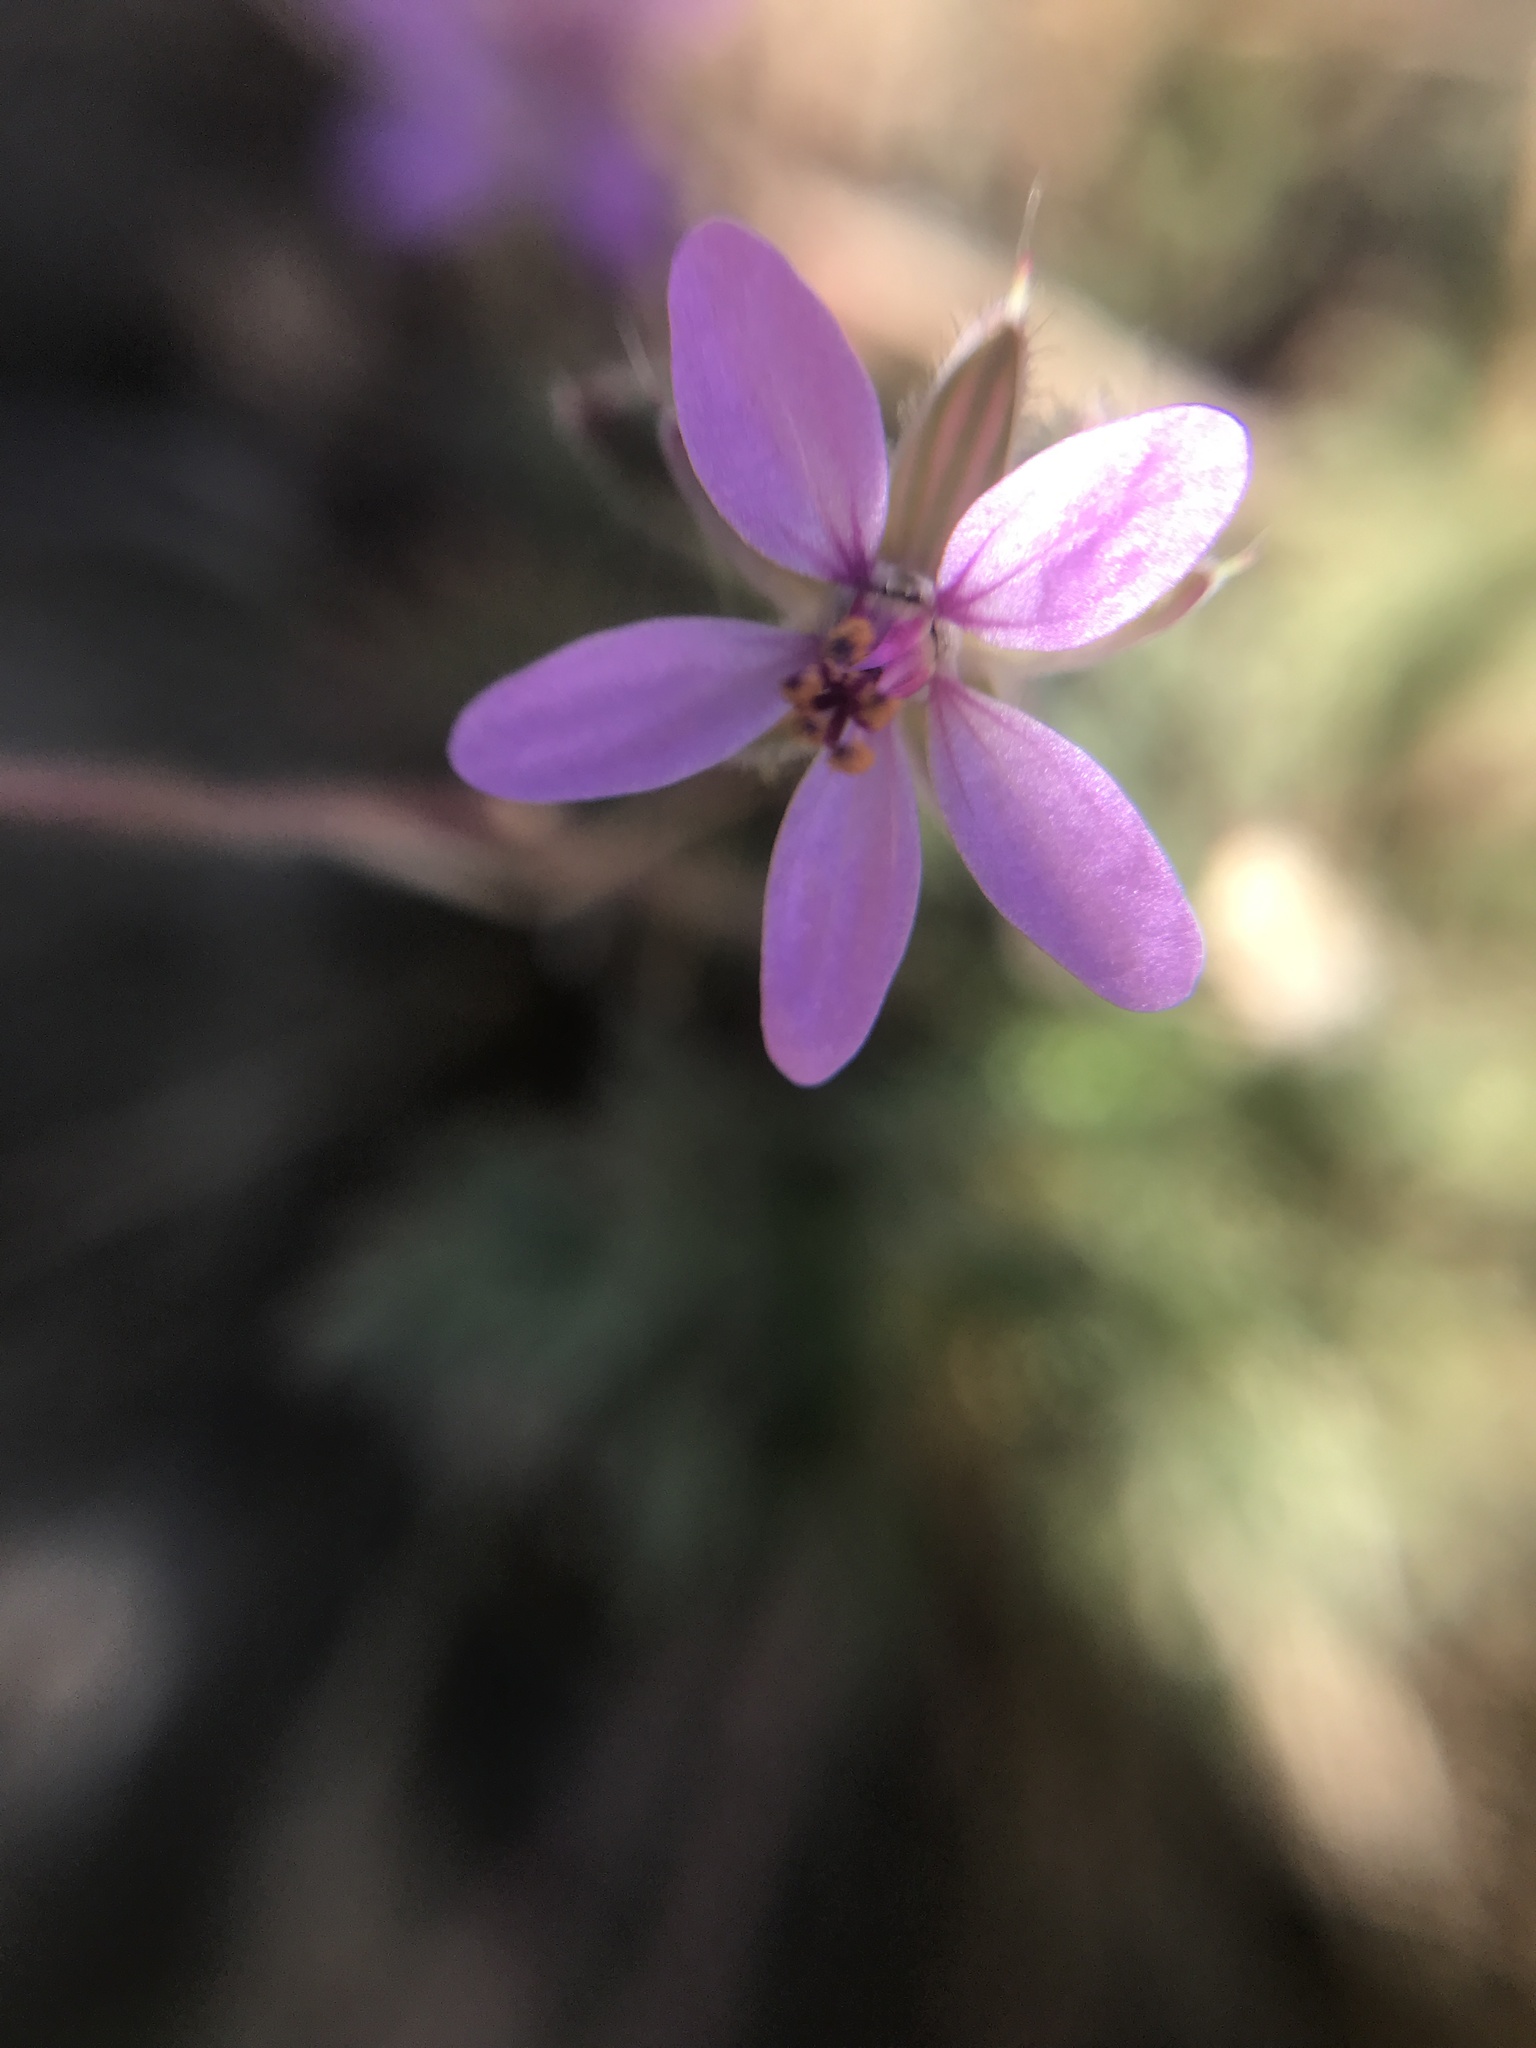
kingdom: Plantae
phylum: Tracheophyta
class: Magnoliopsida
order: Geraniales
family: Geraniaceae
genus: Erodium
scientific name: Erodium cicutarium
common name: Common stork's-bill
